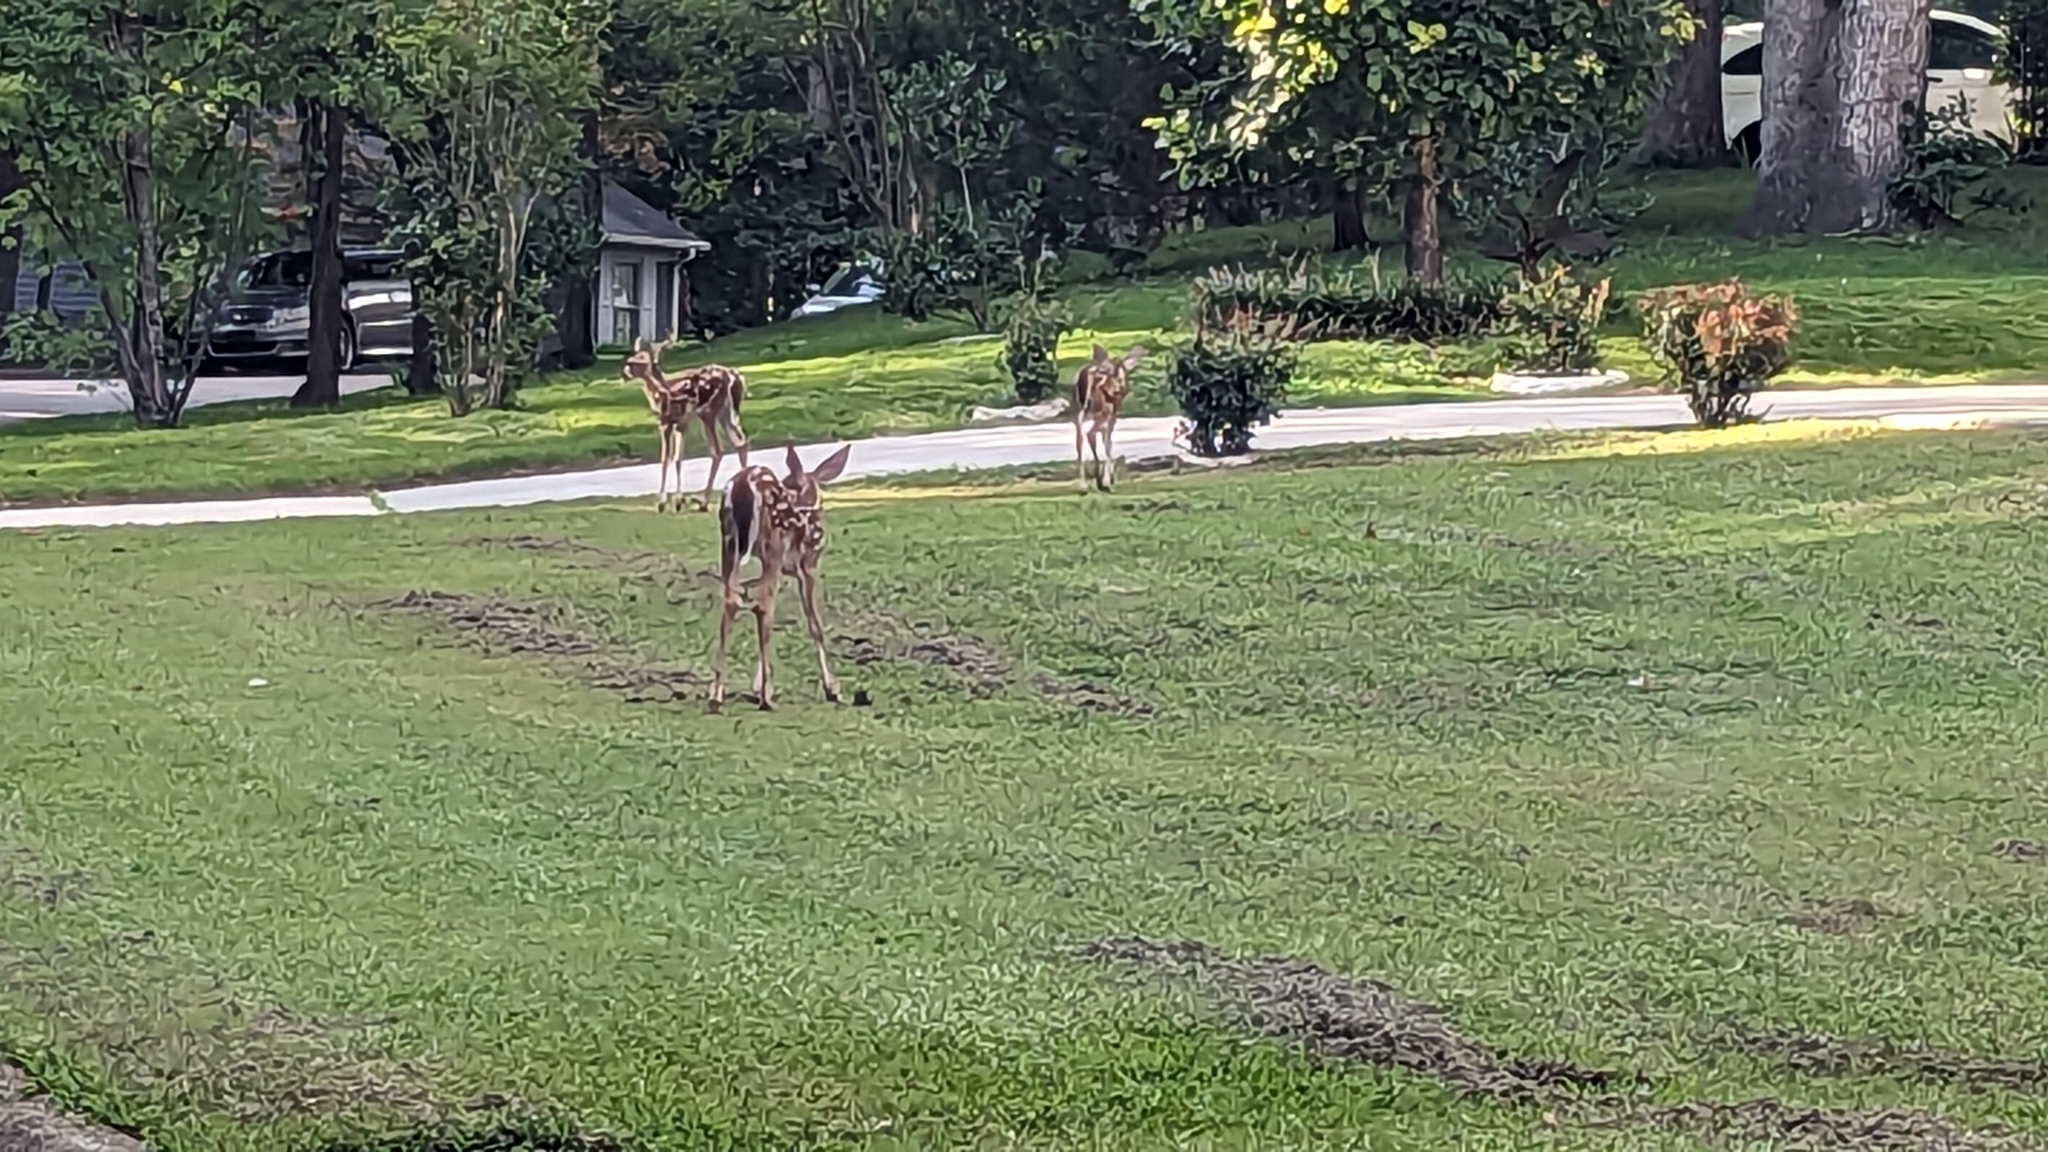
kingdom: Animalia
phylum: Chordata
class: Mammalia
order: Artiodactyla
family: Cervidae
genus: Odocoileus
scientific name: Odocoileus virginianus
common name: White-tailed deer
